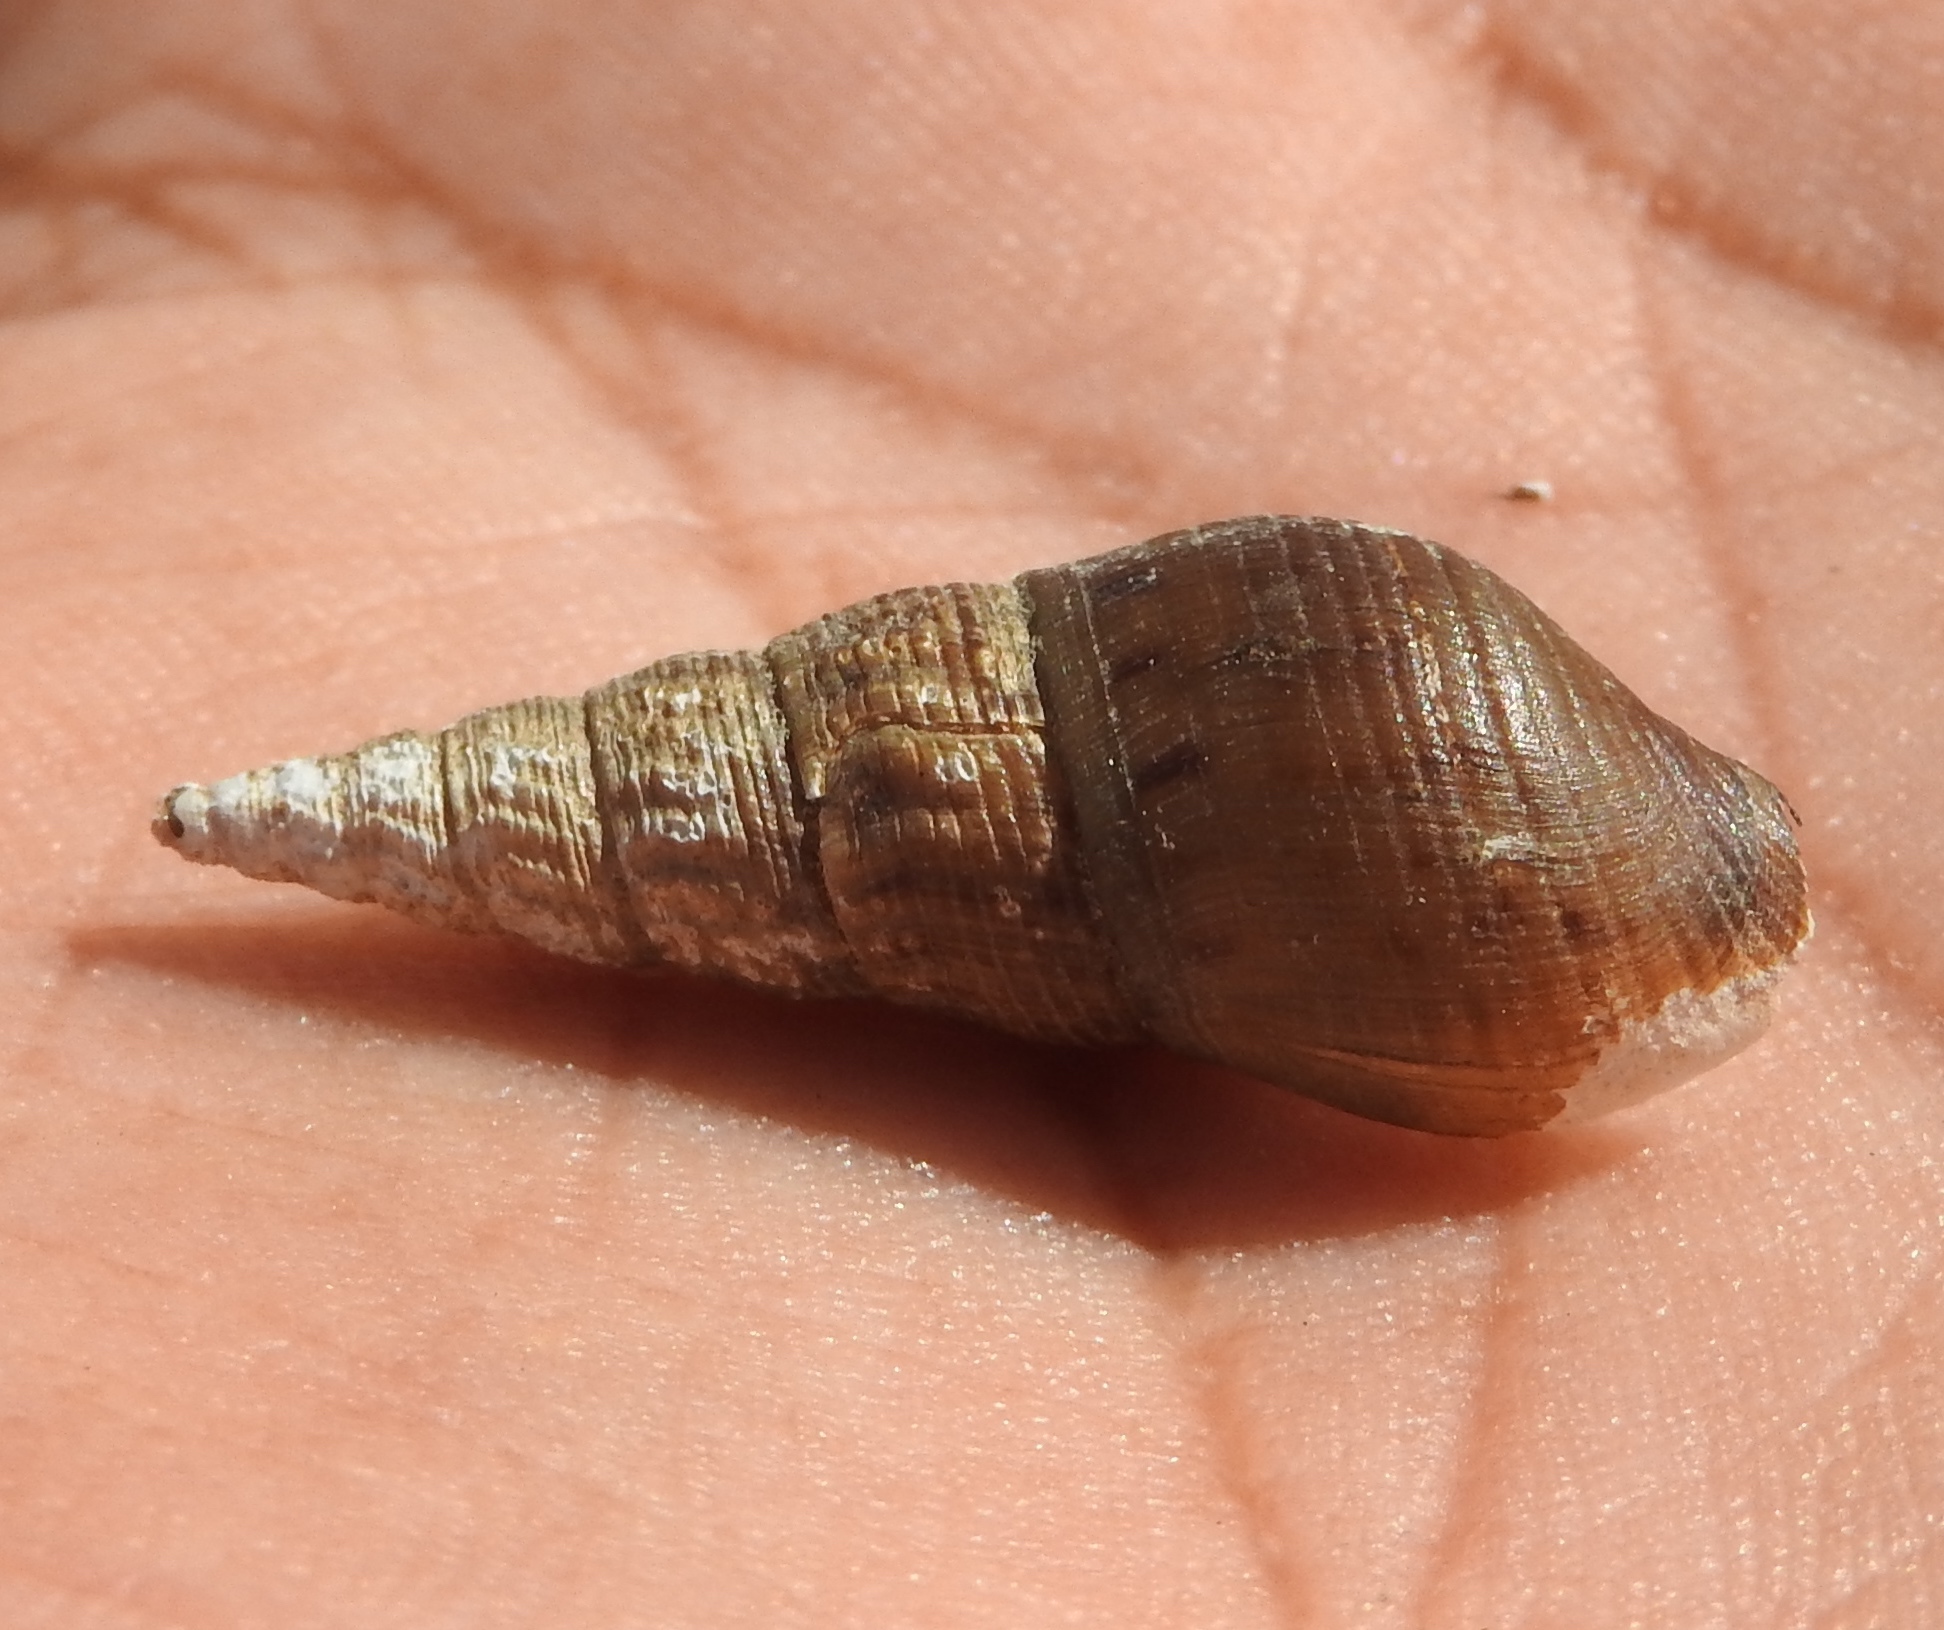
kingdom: Animalia
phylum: Mollusca
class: Gastropoda
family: Thiaridae
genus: Melanoides
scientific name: Melanoides tuberculata
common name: Red-rim melania
